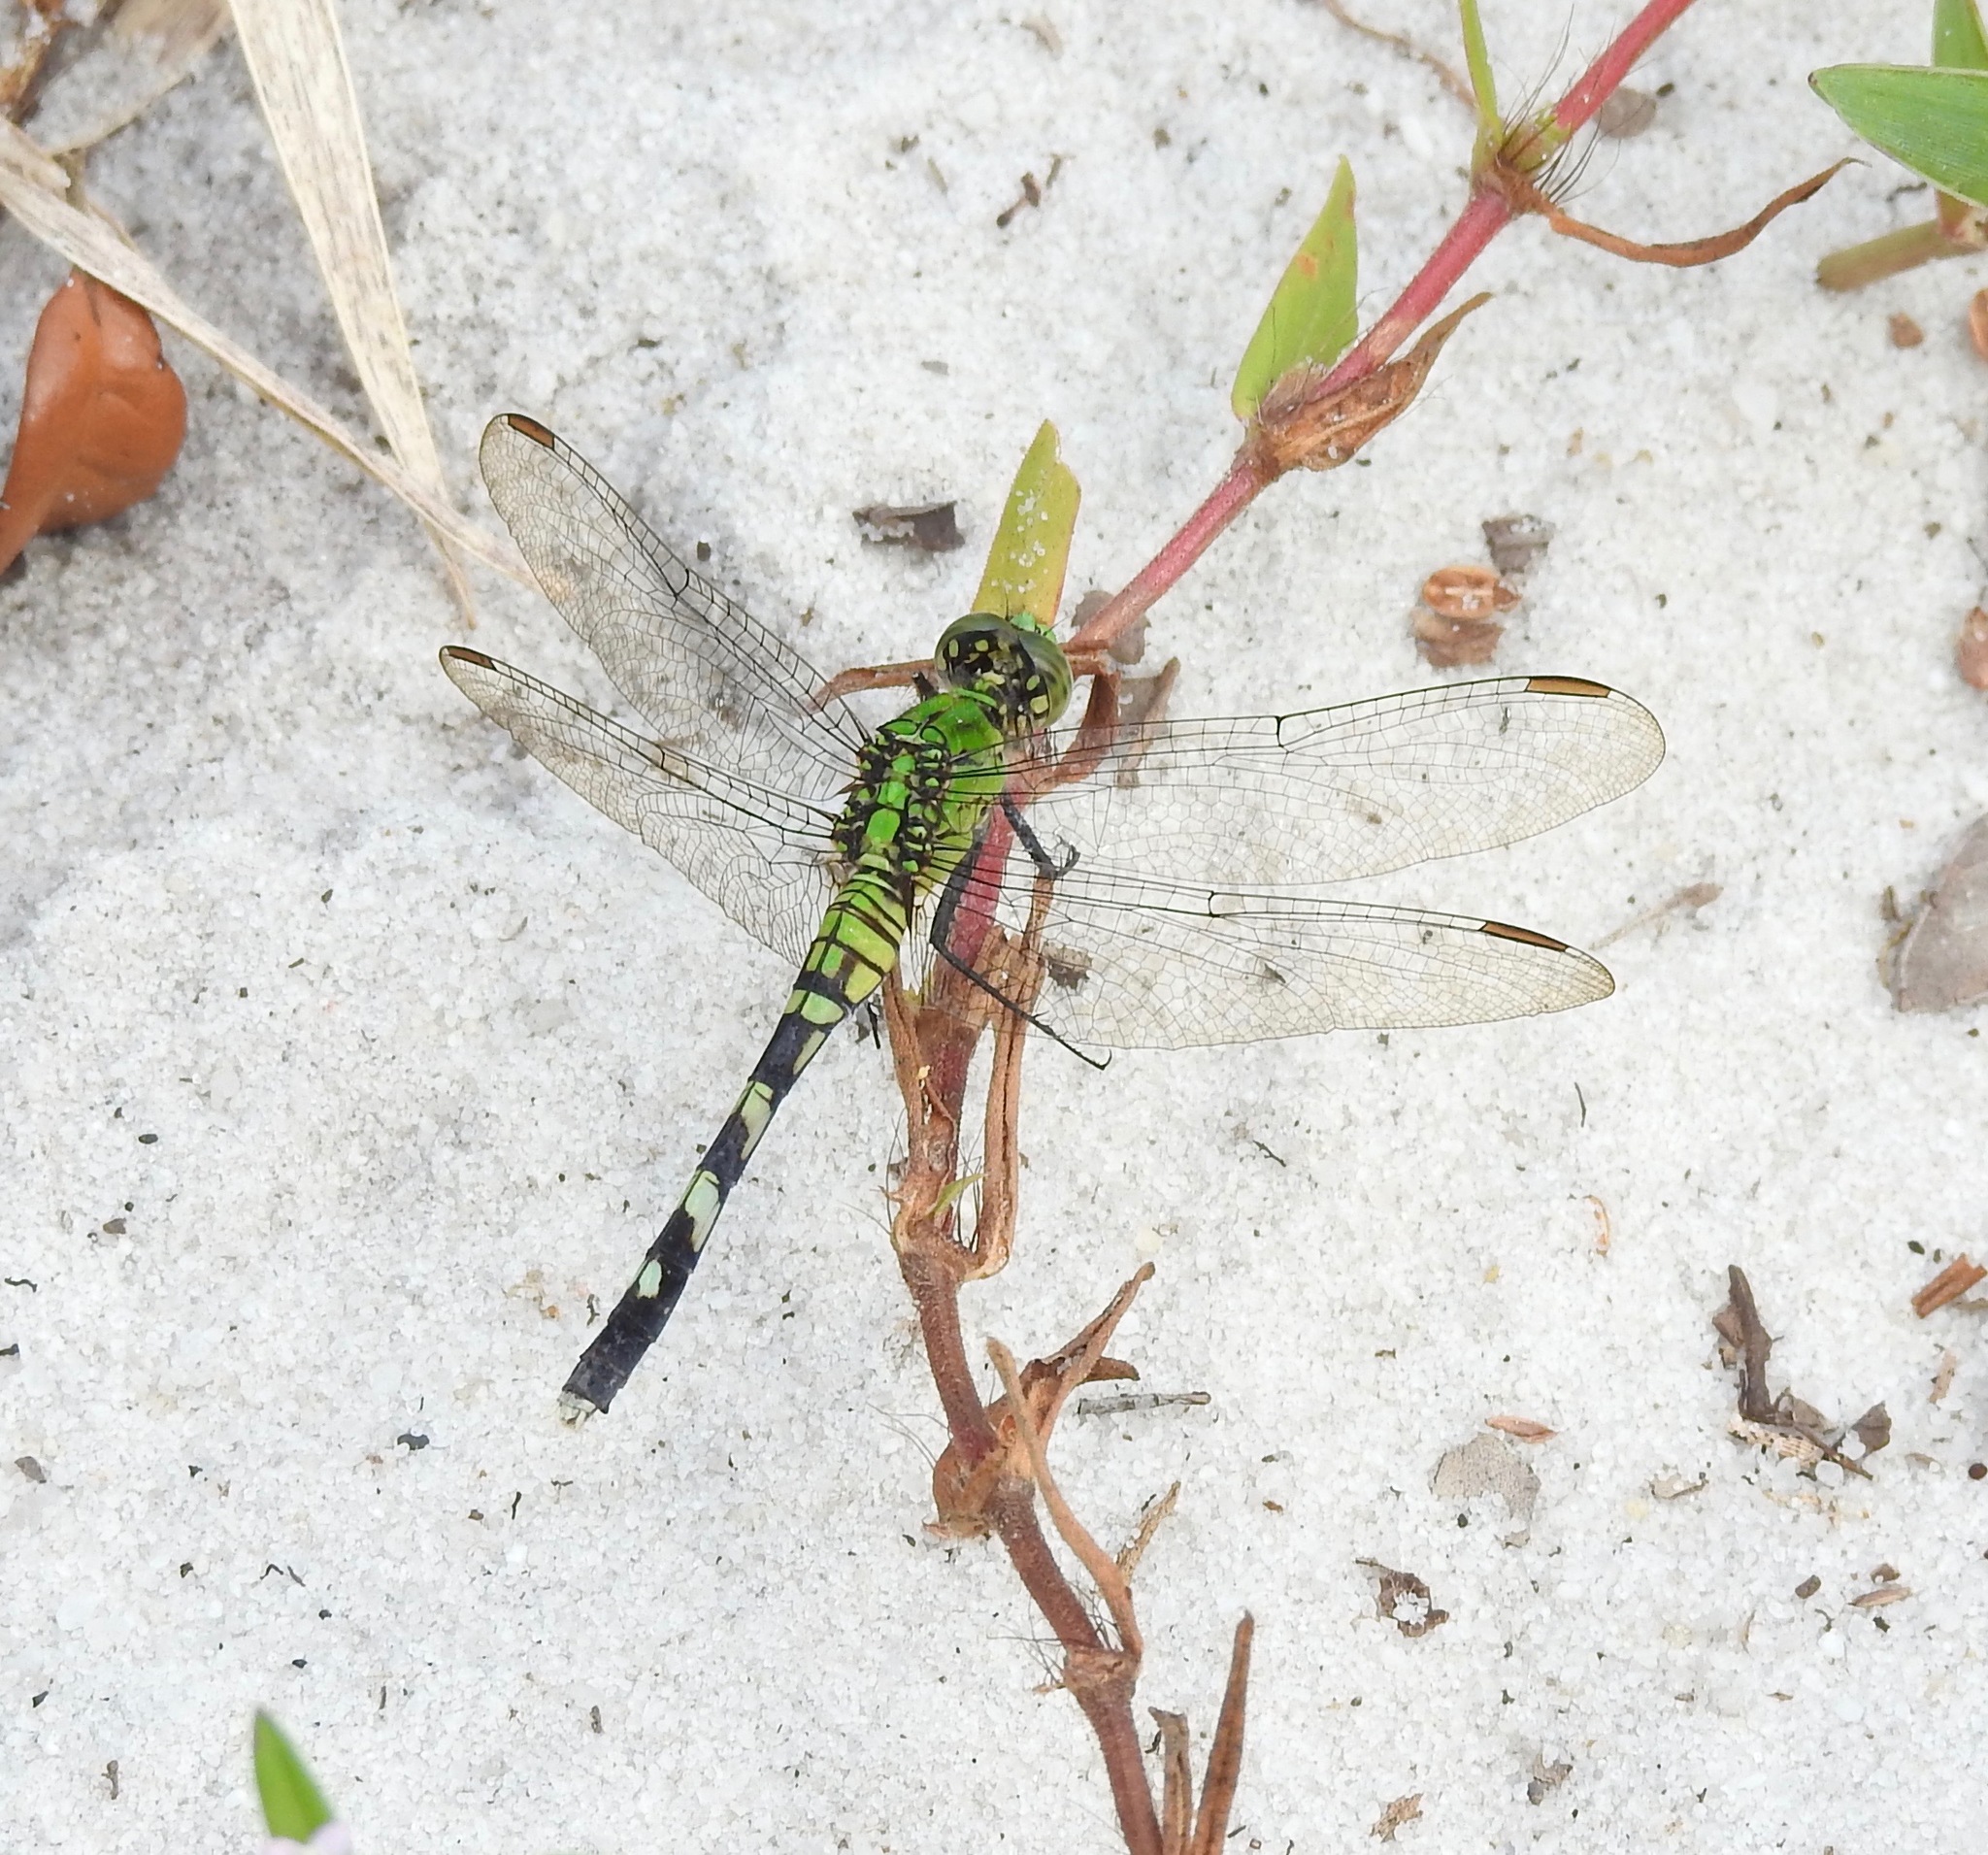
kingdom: Animalia
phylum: Arthropoda
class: Insecta
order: Odonata
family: Libellulidae
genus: Erythemis
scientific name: Erythemis simplicicollis
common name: Eastern pondhawk
